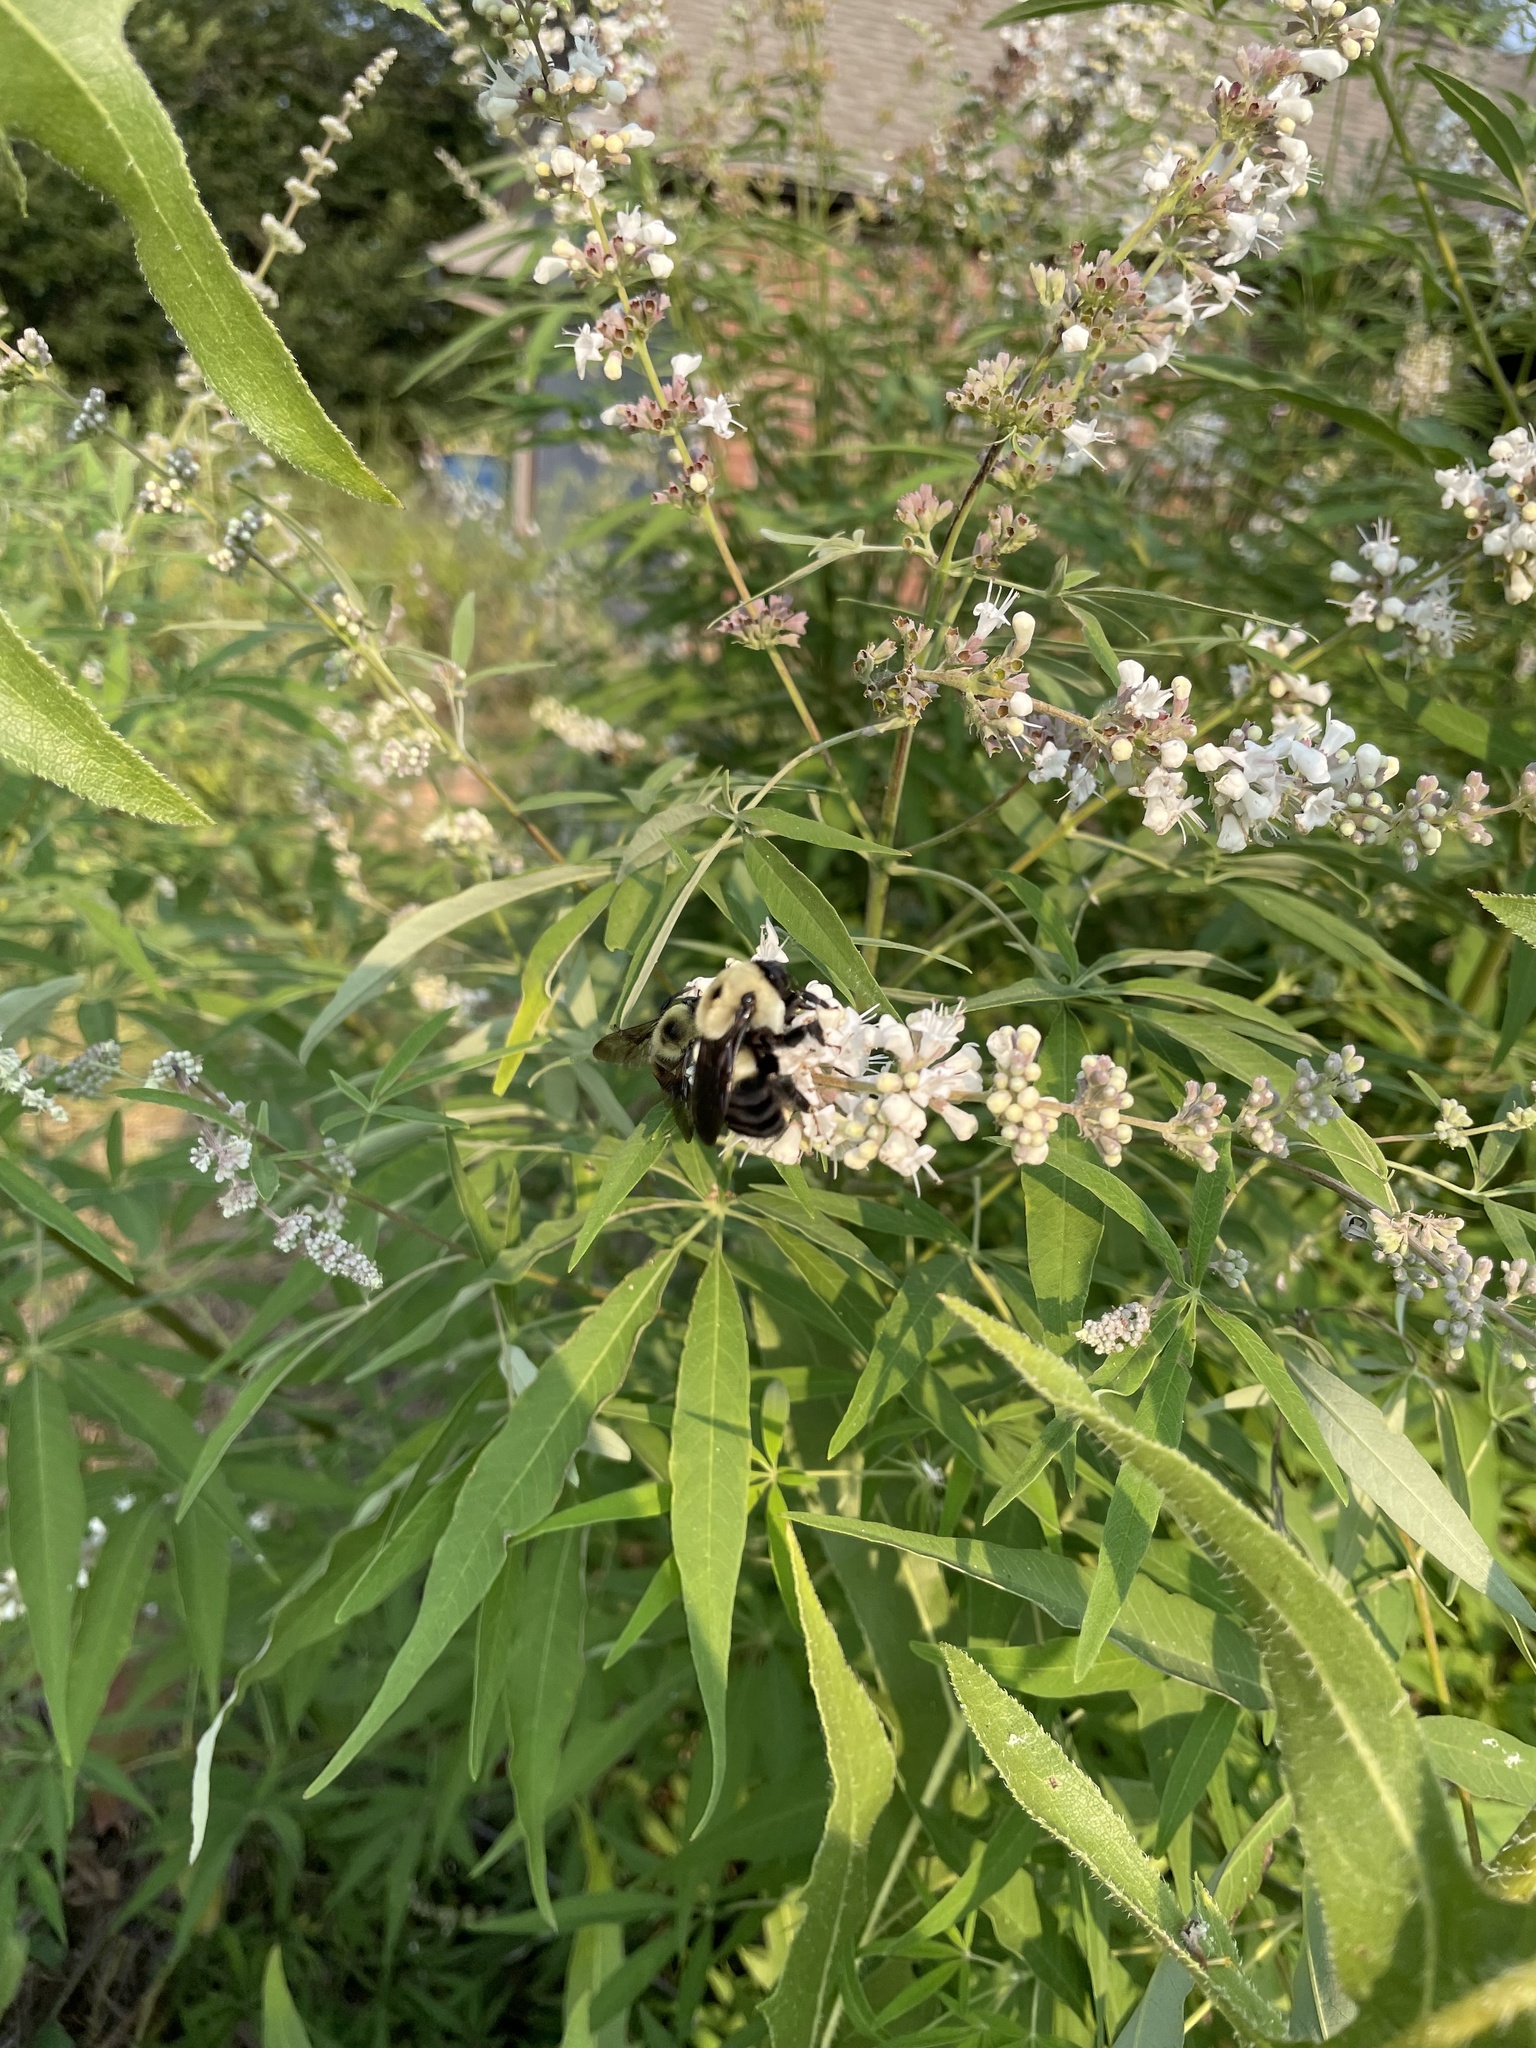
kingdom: Animalia
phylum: Arthropoda
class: Insecta
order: Hymenoptera
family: Apidae
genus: Bombus
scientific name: Bombus griseocollis
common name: Brown-belted bumble bee
